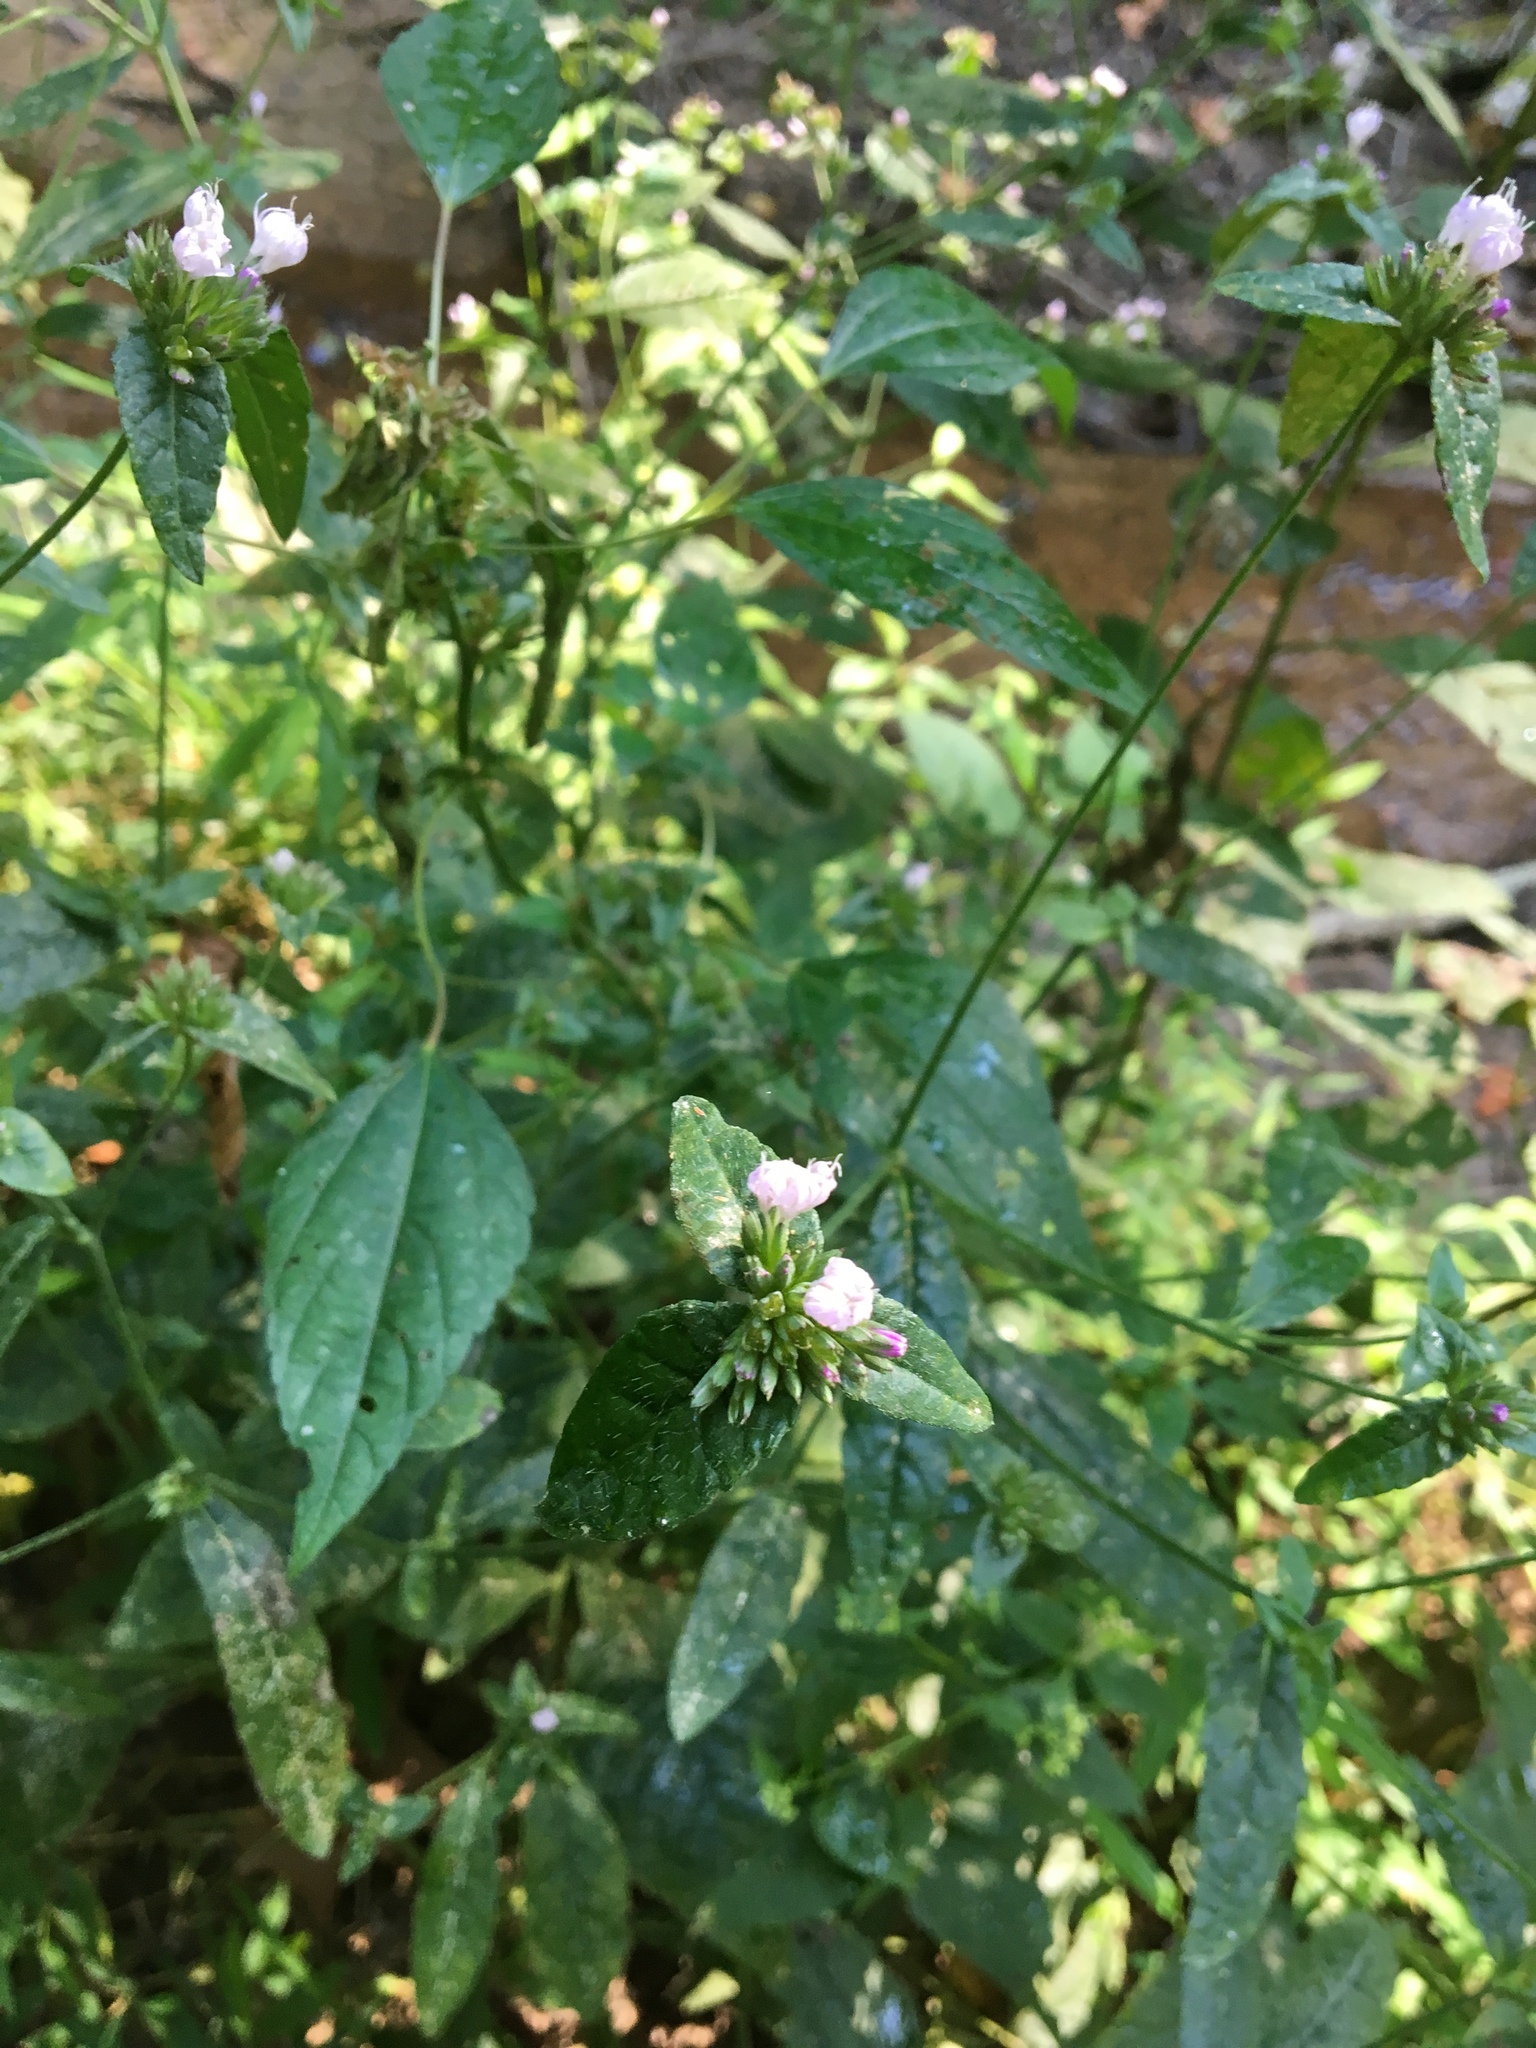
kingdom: Plantae
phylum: Tracheophyta
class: Magnoliopsida
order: Asterales
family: Asteraceae
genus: Elephantopus
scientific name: Elephantopus carolinianus
